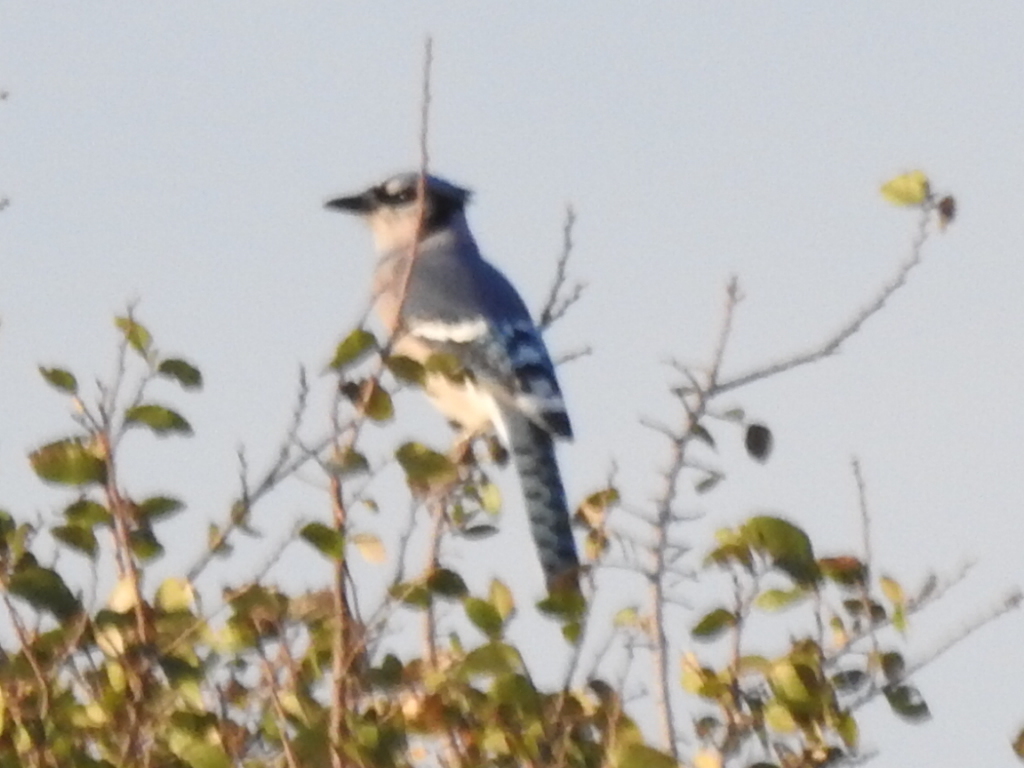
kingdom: Animalia
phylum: Chordata
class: Aves
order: Passeriformes
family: Corvidae
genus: Cyanocitta
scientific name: Cyanocitta cristata
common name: Blue jay
